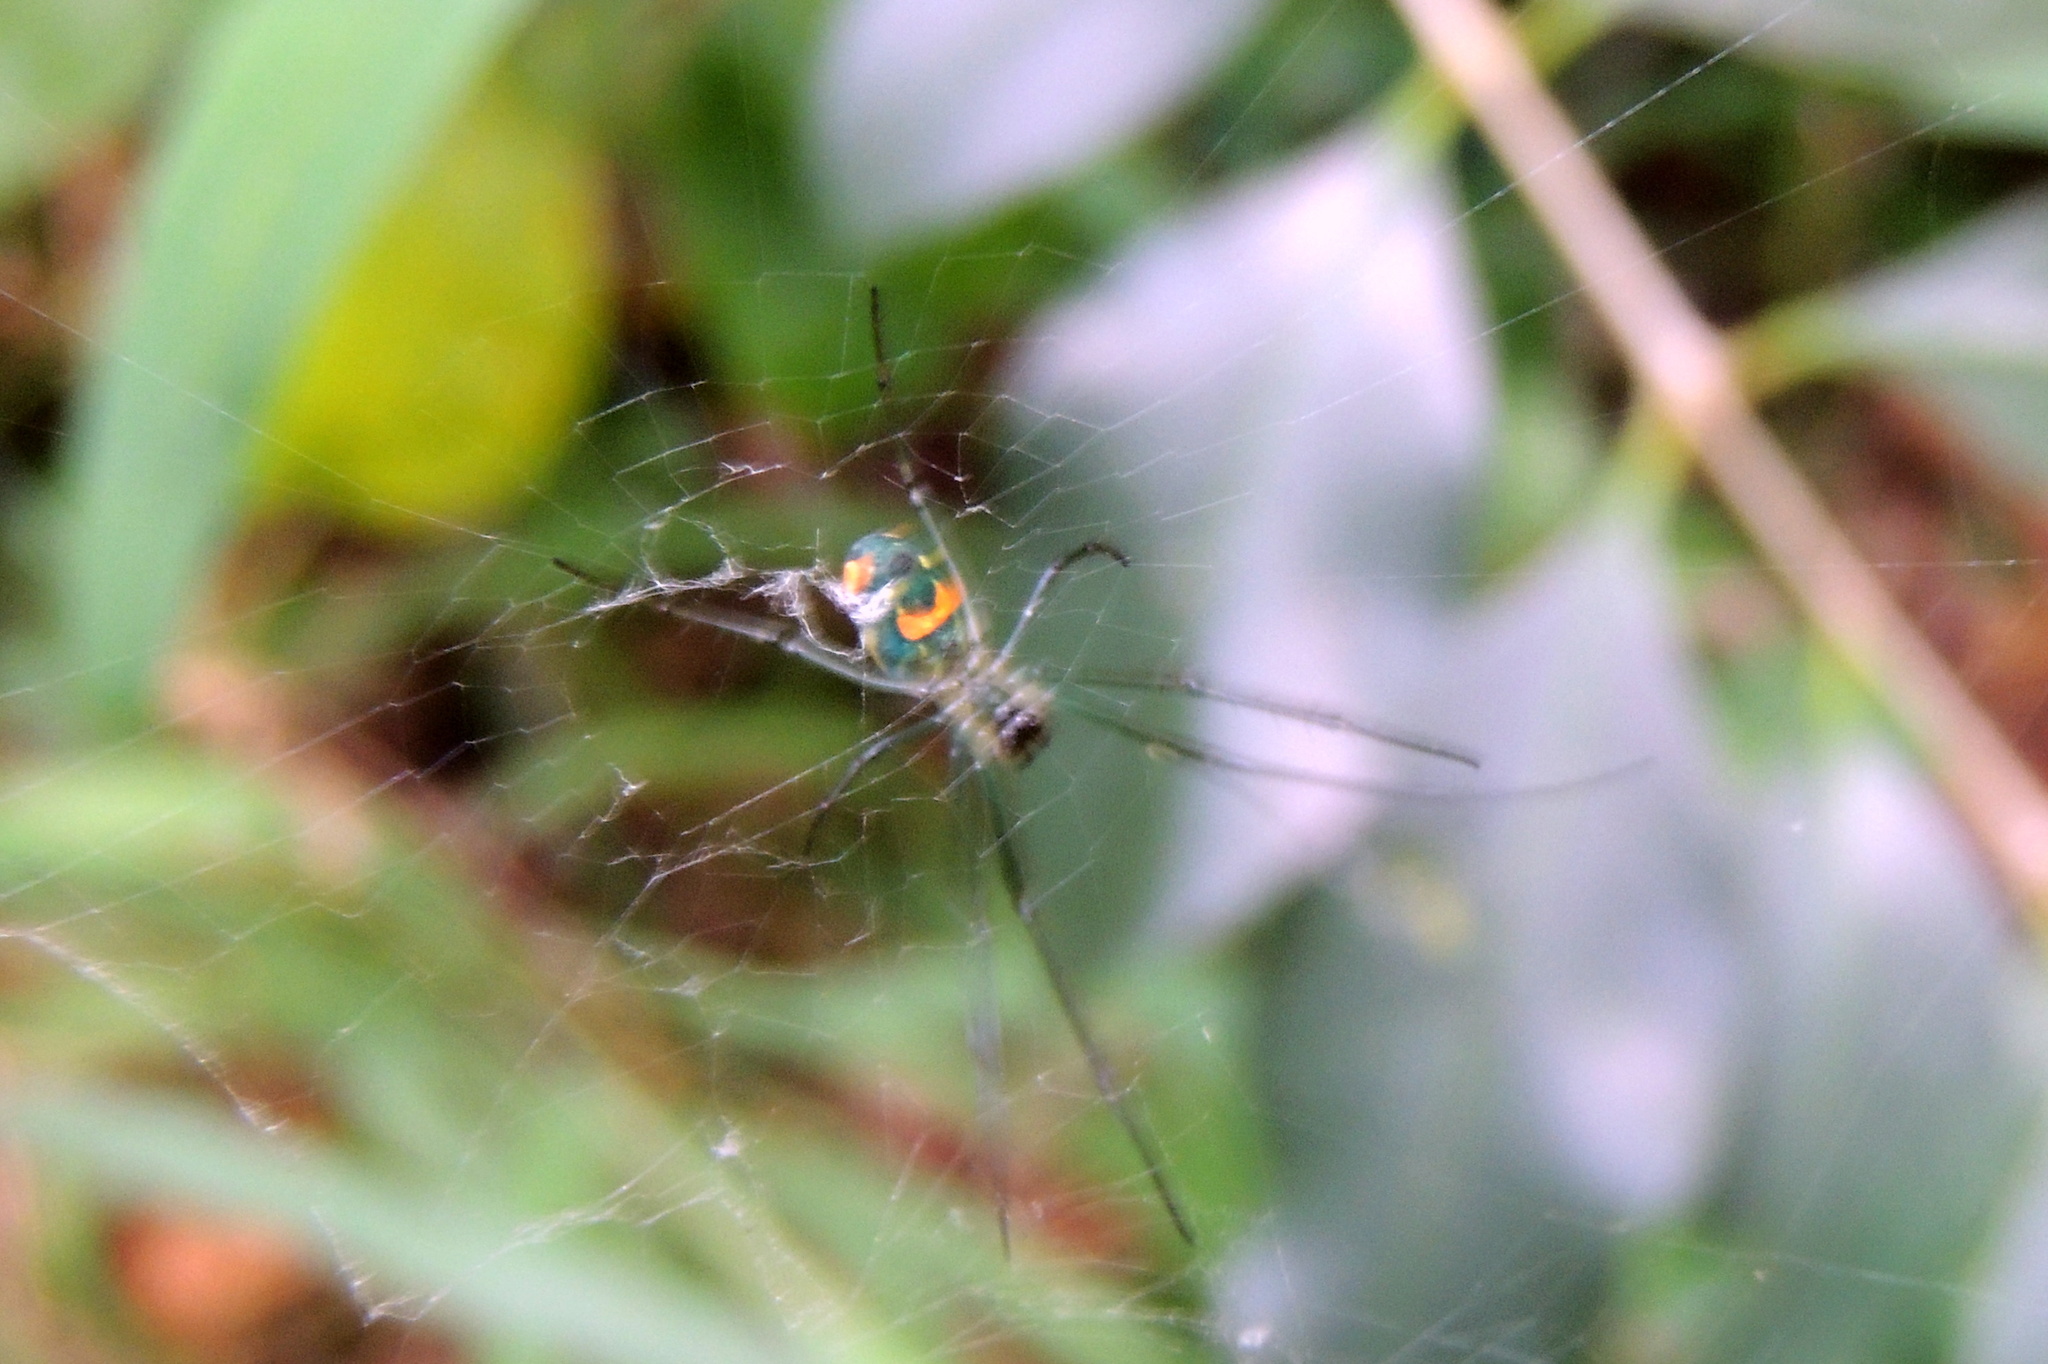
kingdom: Animalia
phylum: Arthropoda
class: Arachnida
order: Araneae
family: Tetragnathidae
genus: Leucauge
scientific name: Leucauge argyrobapta
